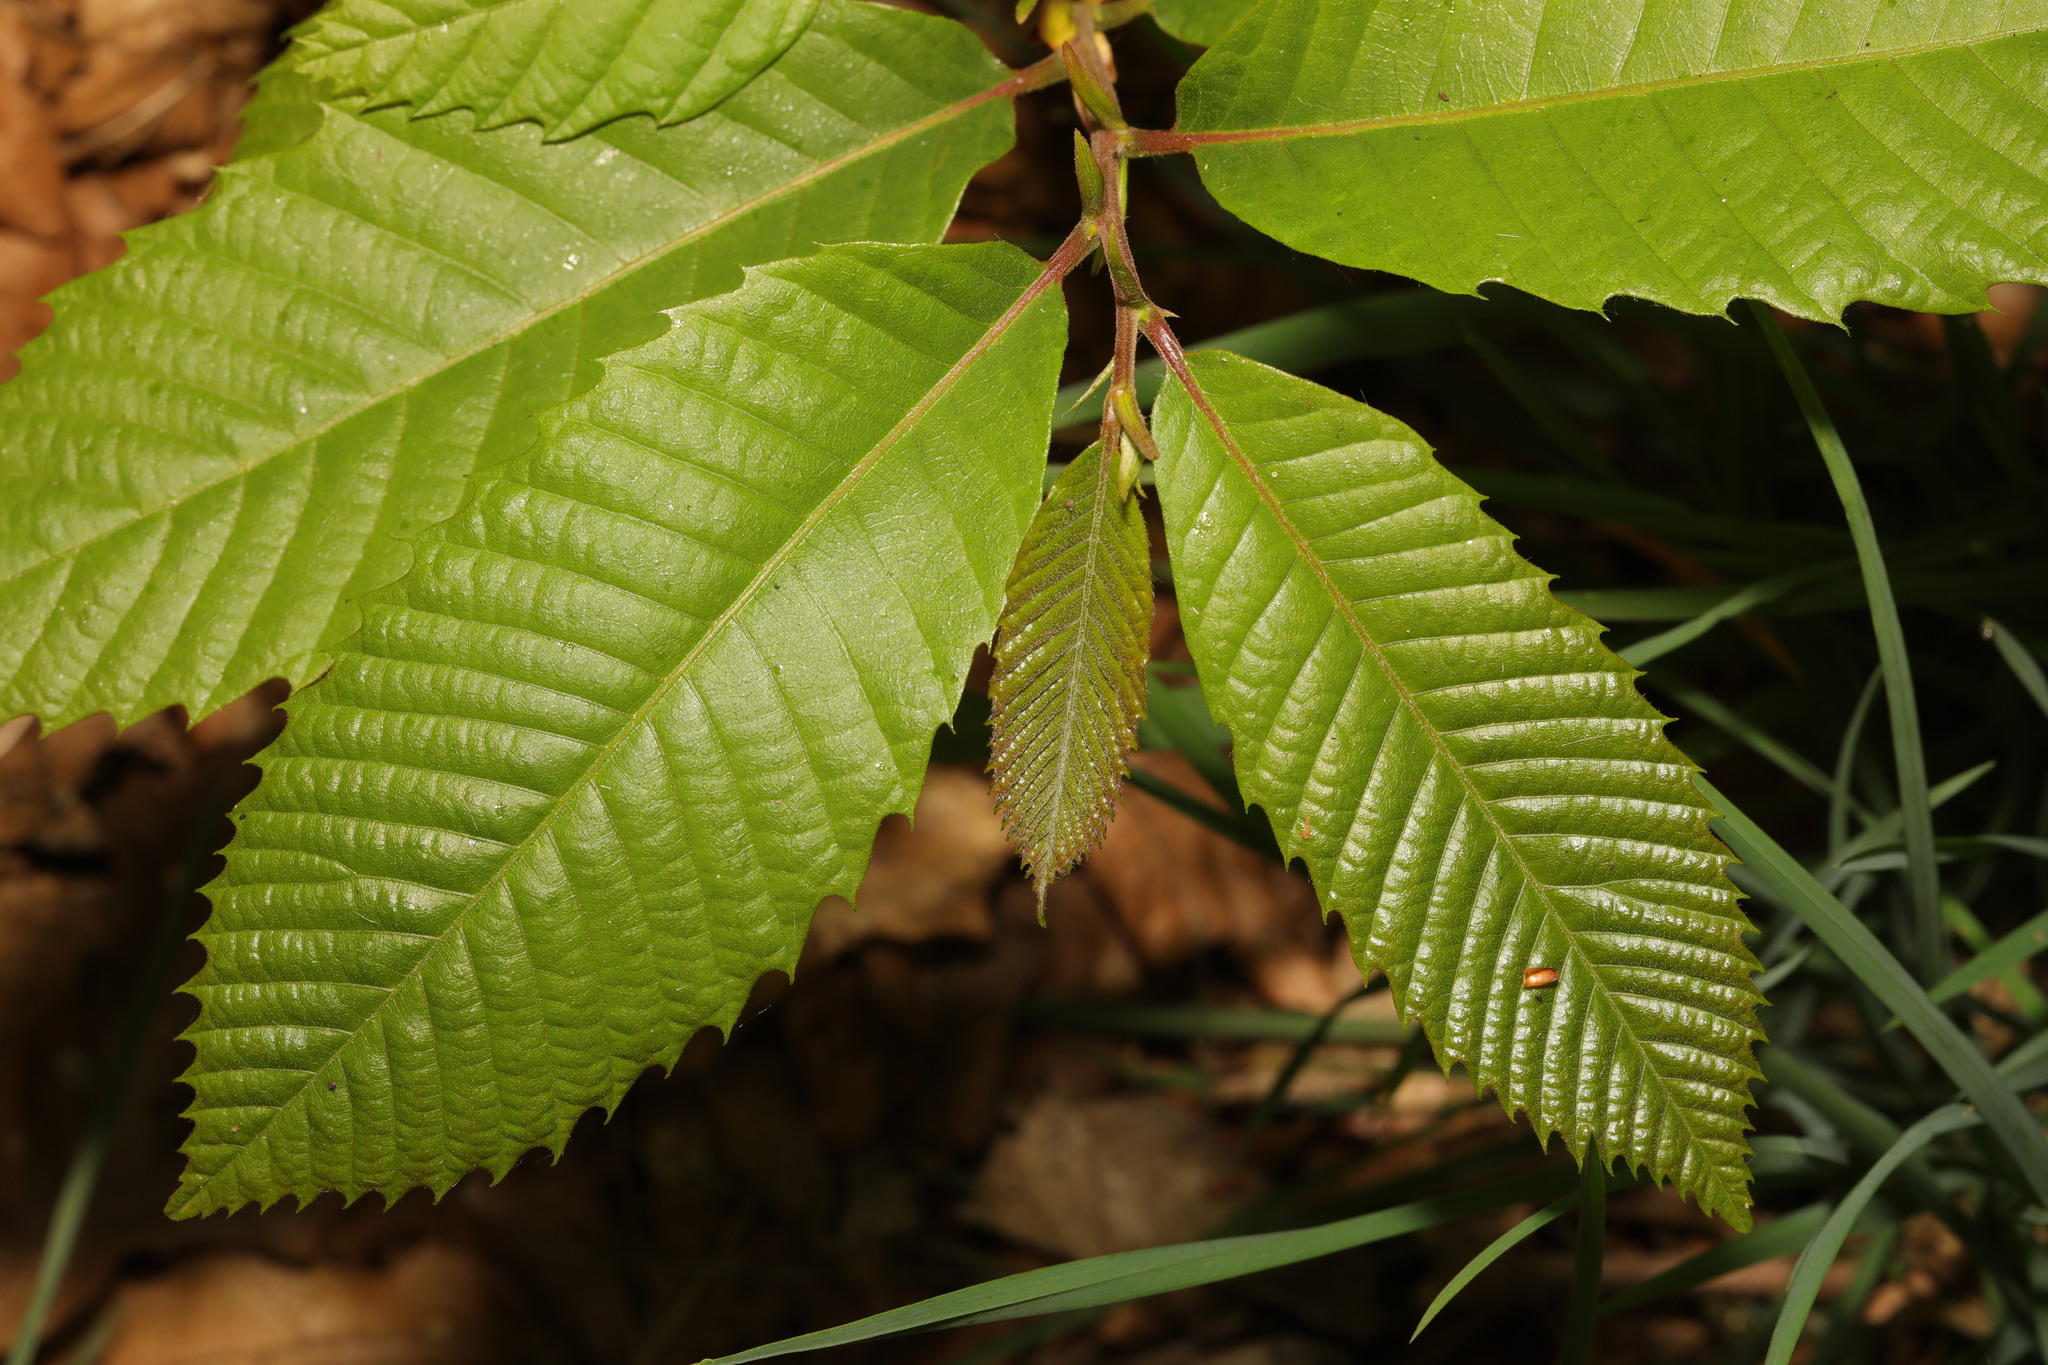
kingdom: Plantae
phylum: Tracheophyta
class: Magnoliopsida
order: Fagales
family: Fagaceae
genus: Castanea
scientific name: Castanea sativa
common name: Sweet chestnut
